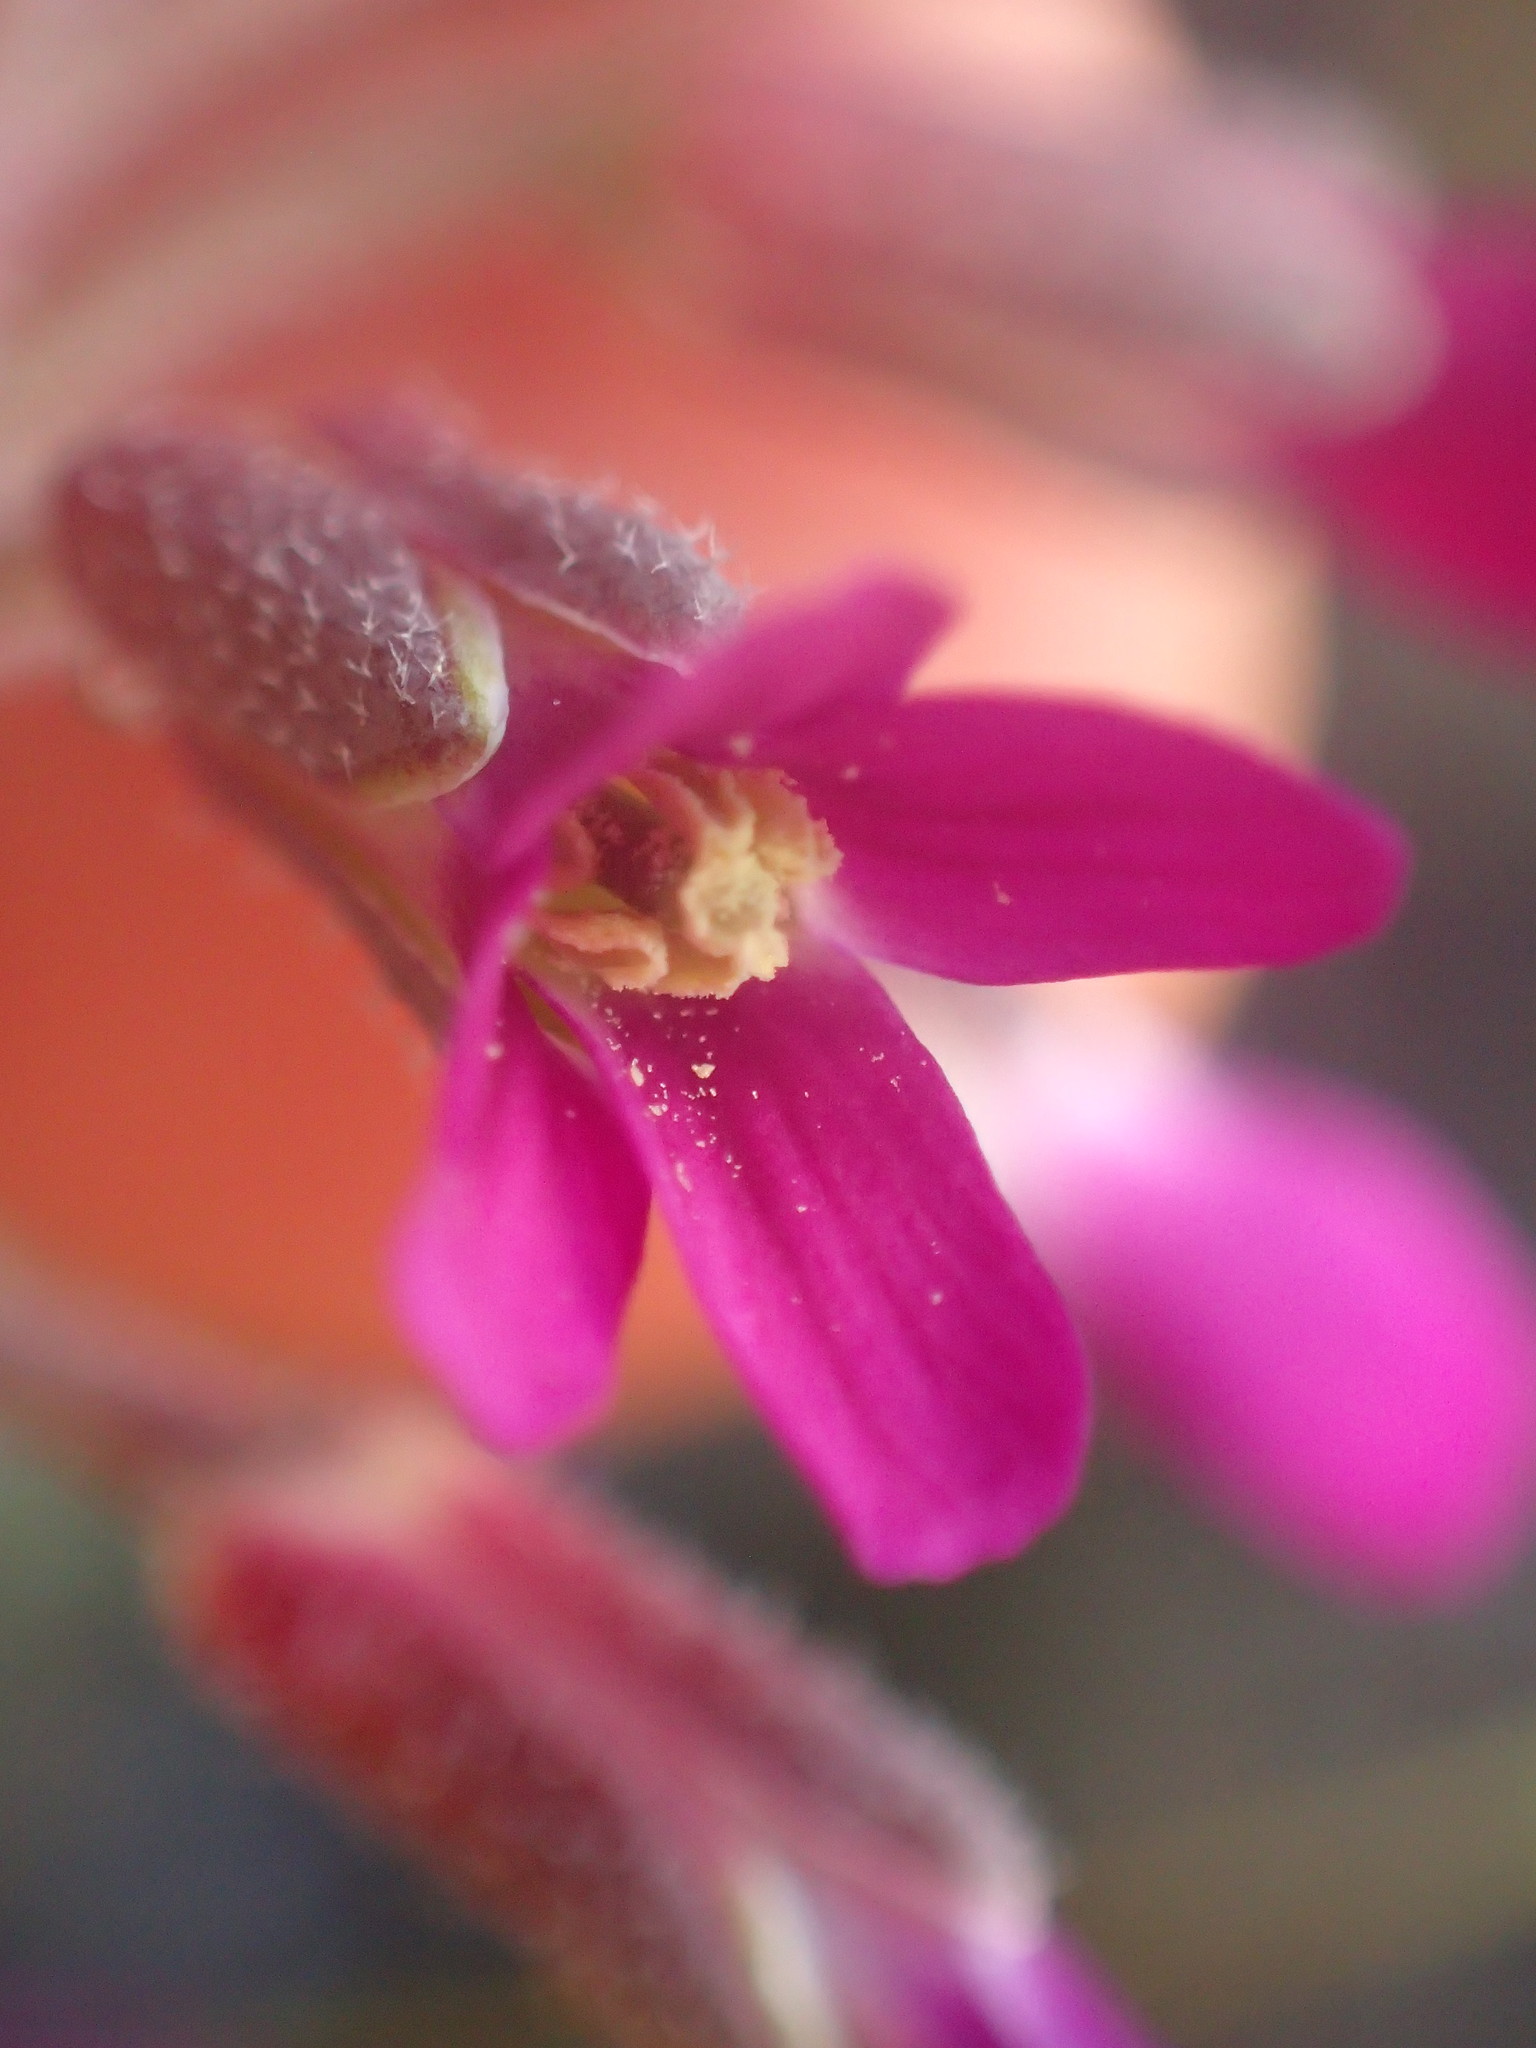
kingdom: Plantae
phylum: Tracheophyta
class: Magnoliopsida
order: Brassicales
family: Brassicaceae
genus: Boechera
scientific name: Boechera arcuata
